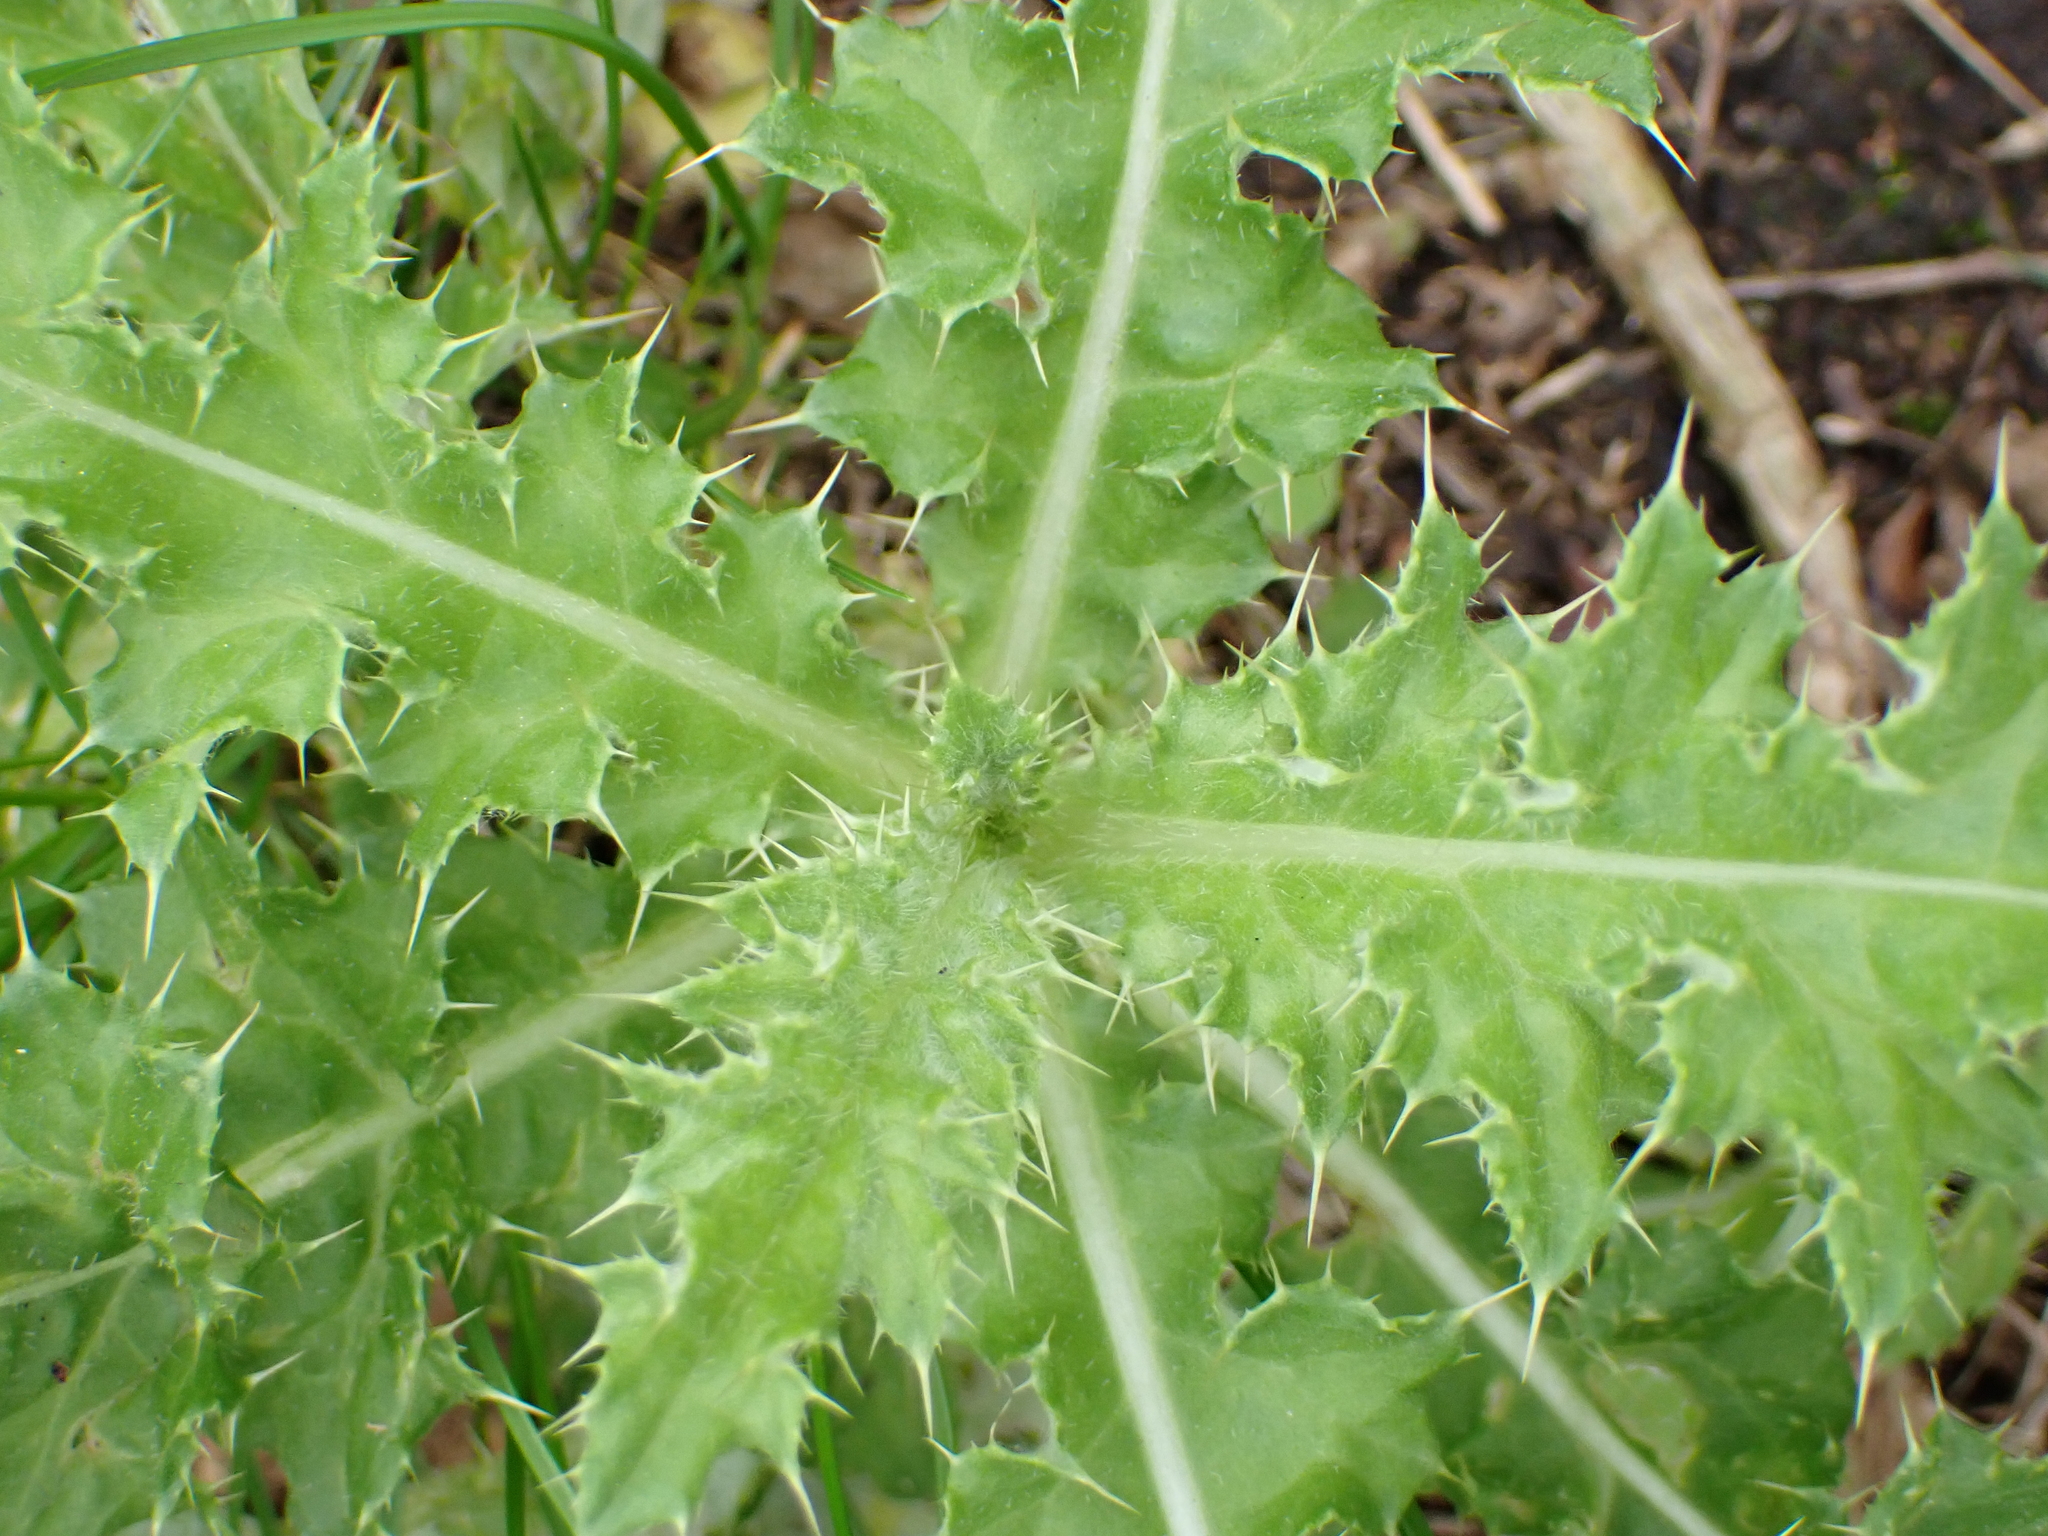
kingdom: Plantae
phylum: Tracheophyta
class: Magnoliopsida
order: Asterales
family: Asteraceae
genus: Cirsium
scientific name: Cirsium arvense
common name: Creeping thistle
